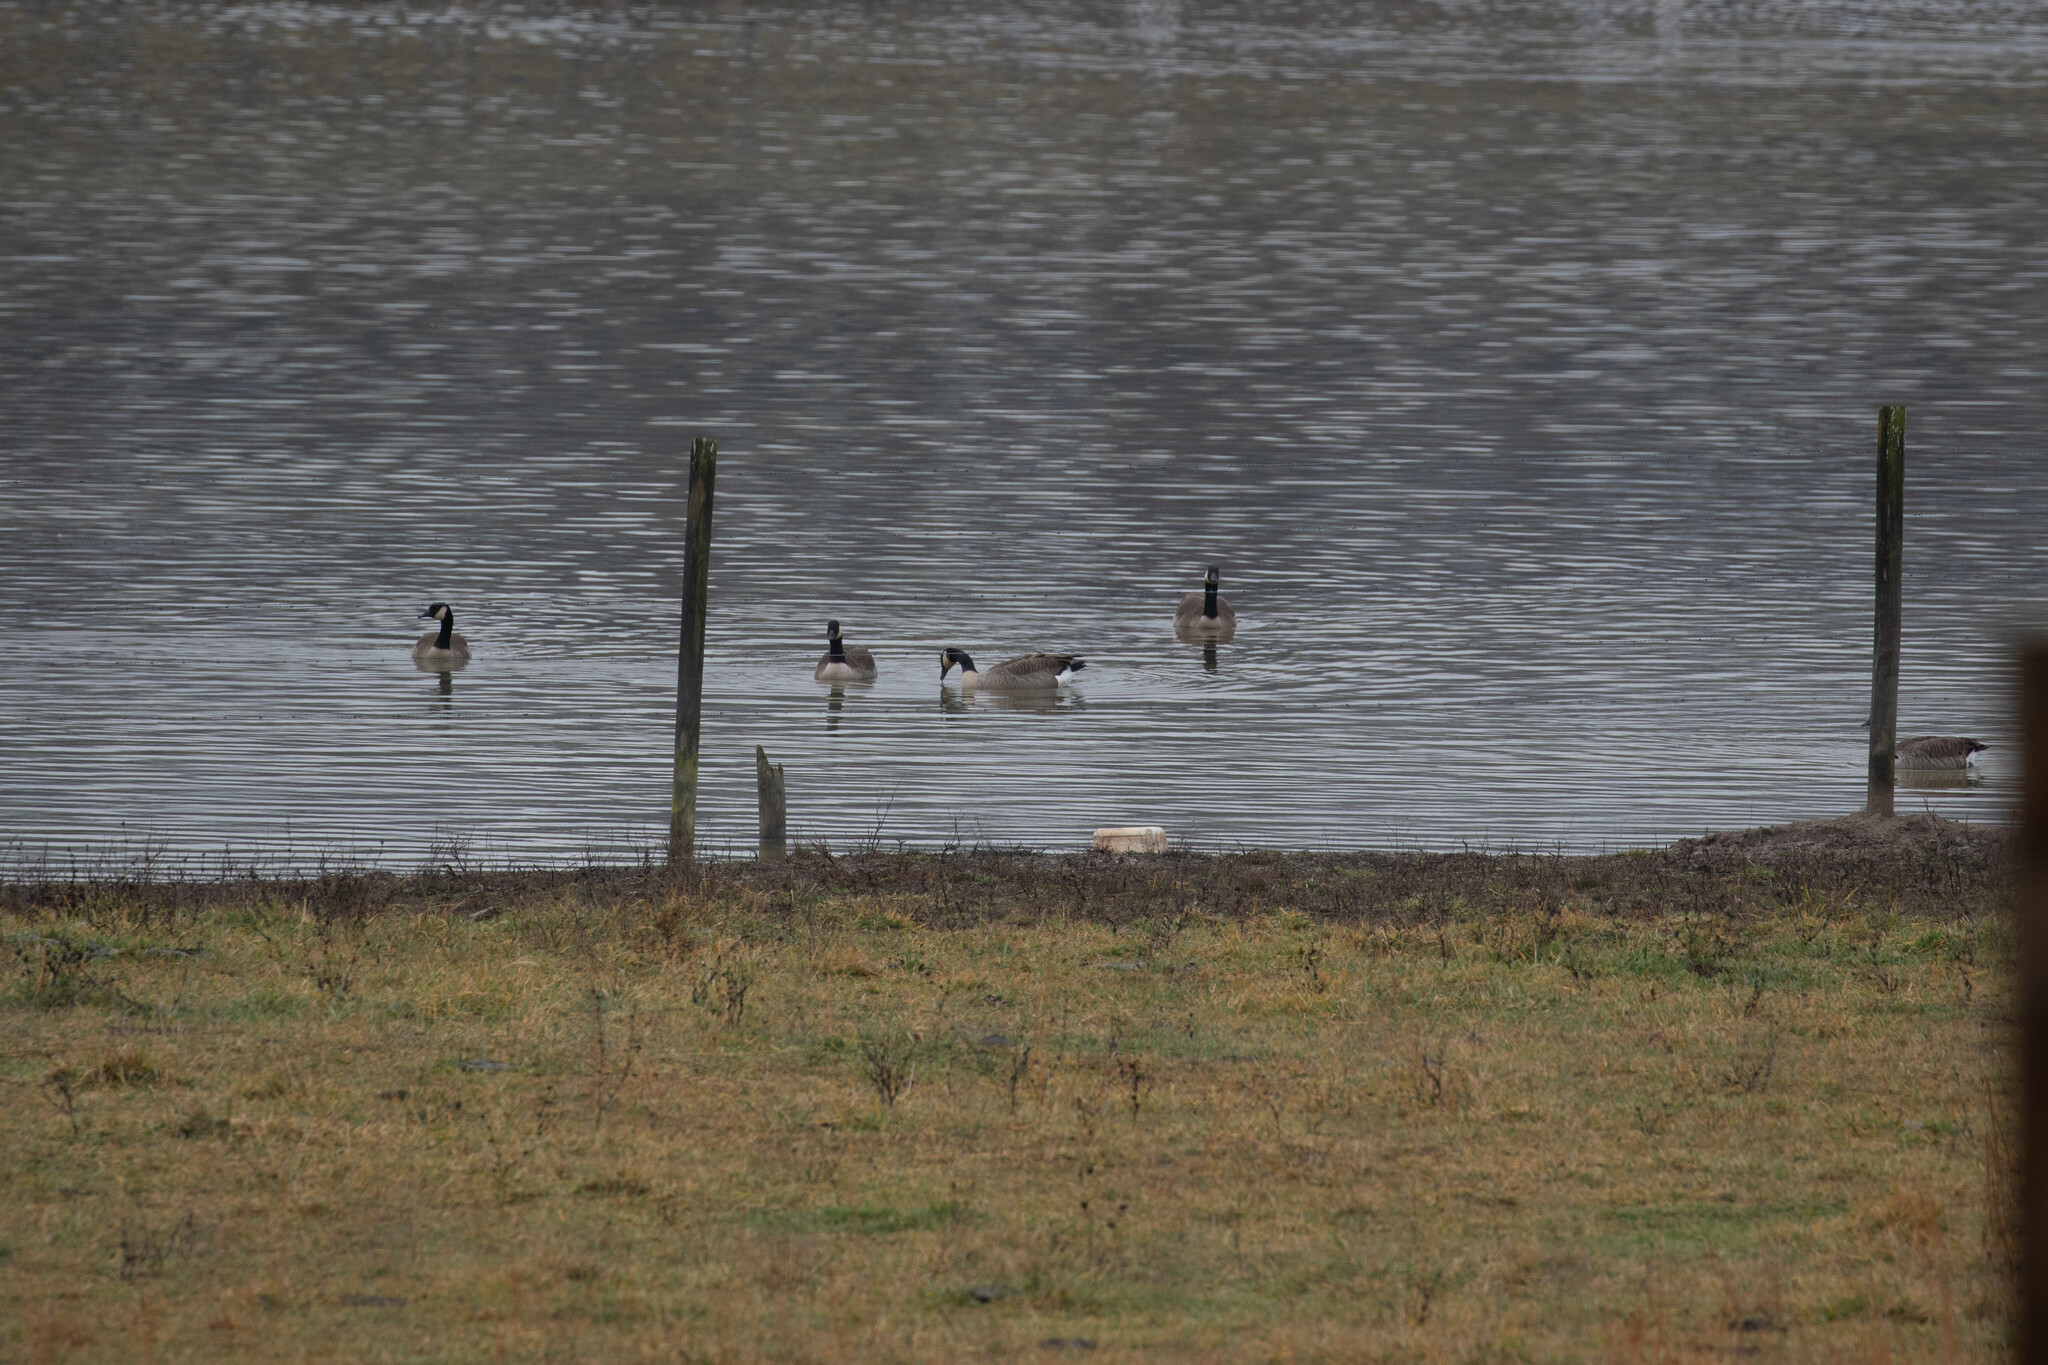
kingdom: Animalia
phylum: Chordata
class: Aves
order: Anseriformes
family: Anatidae
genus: Branta
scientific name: Branta canadensis
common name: Canada goose
